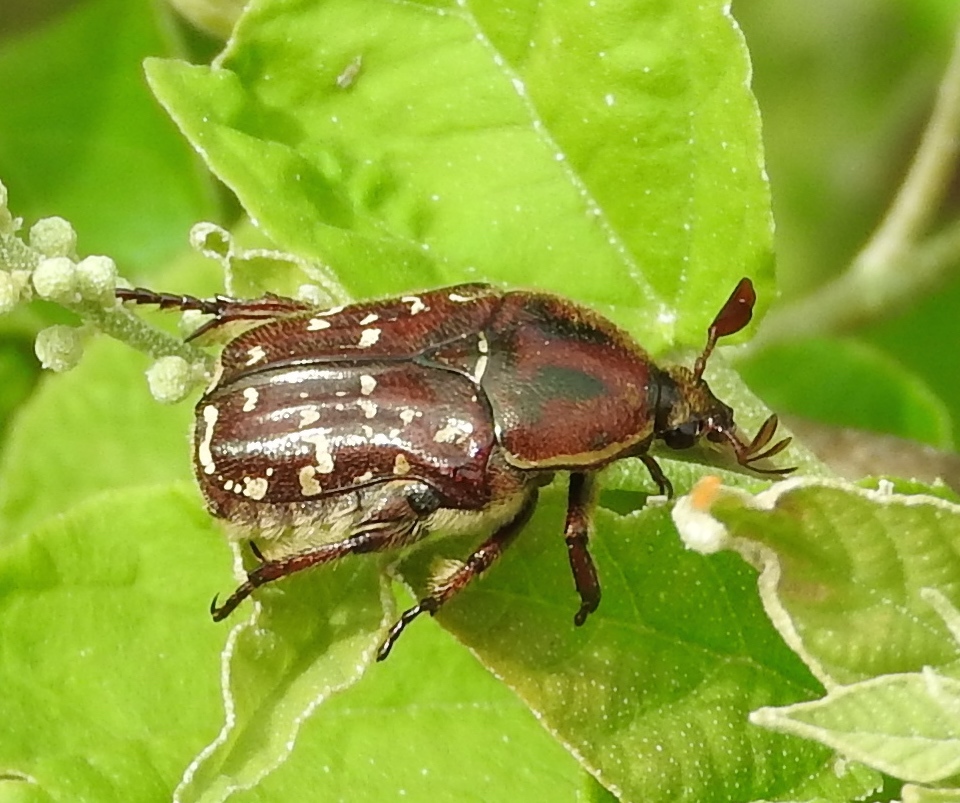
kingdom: Animalia
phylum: Arthropoda
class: Insecta
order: Coleoptera
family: Scarabaeidae
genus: Euphoria
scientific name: Euphoria leucographa
